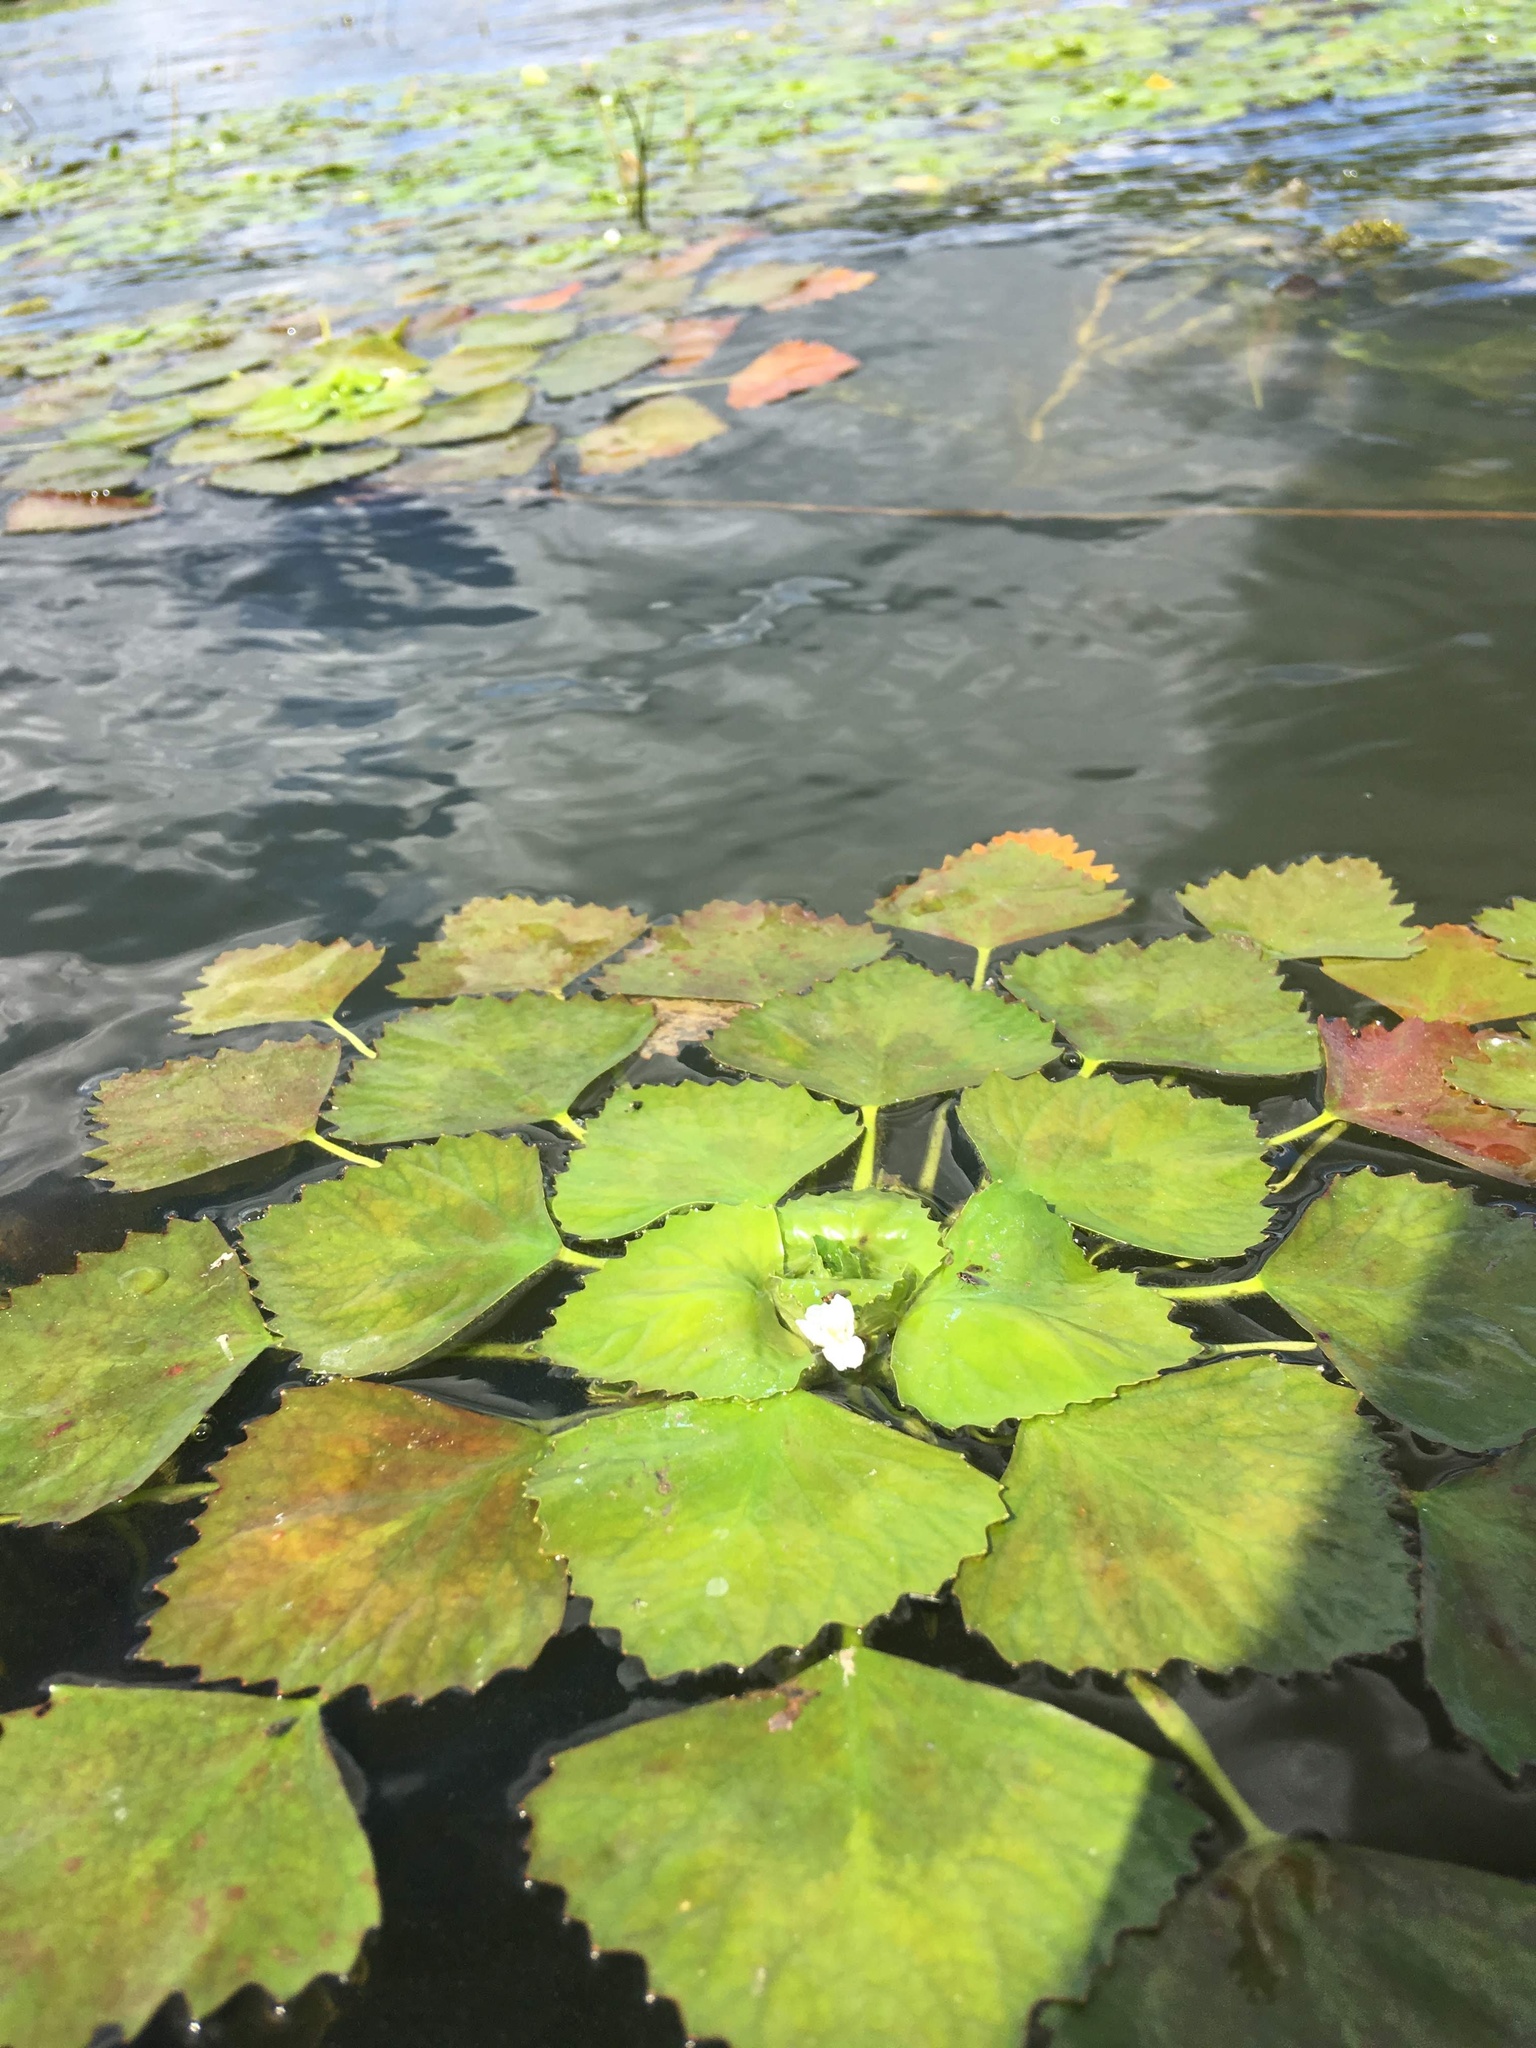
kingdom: Plantae
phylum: Tracheophyta
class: Magnoliopsida
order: Myrtales
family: Lythraceae
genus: Trapa
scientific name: Trapa natans
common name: Water chestnut
